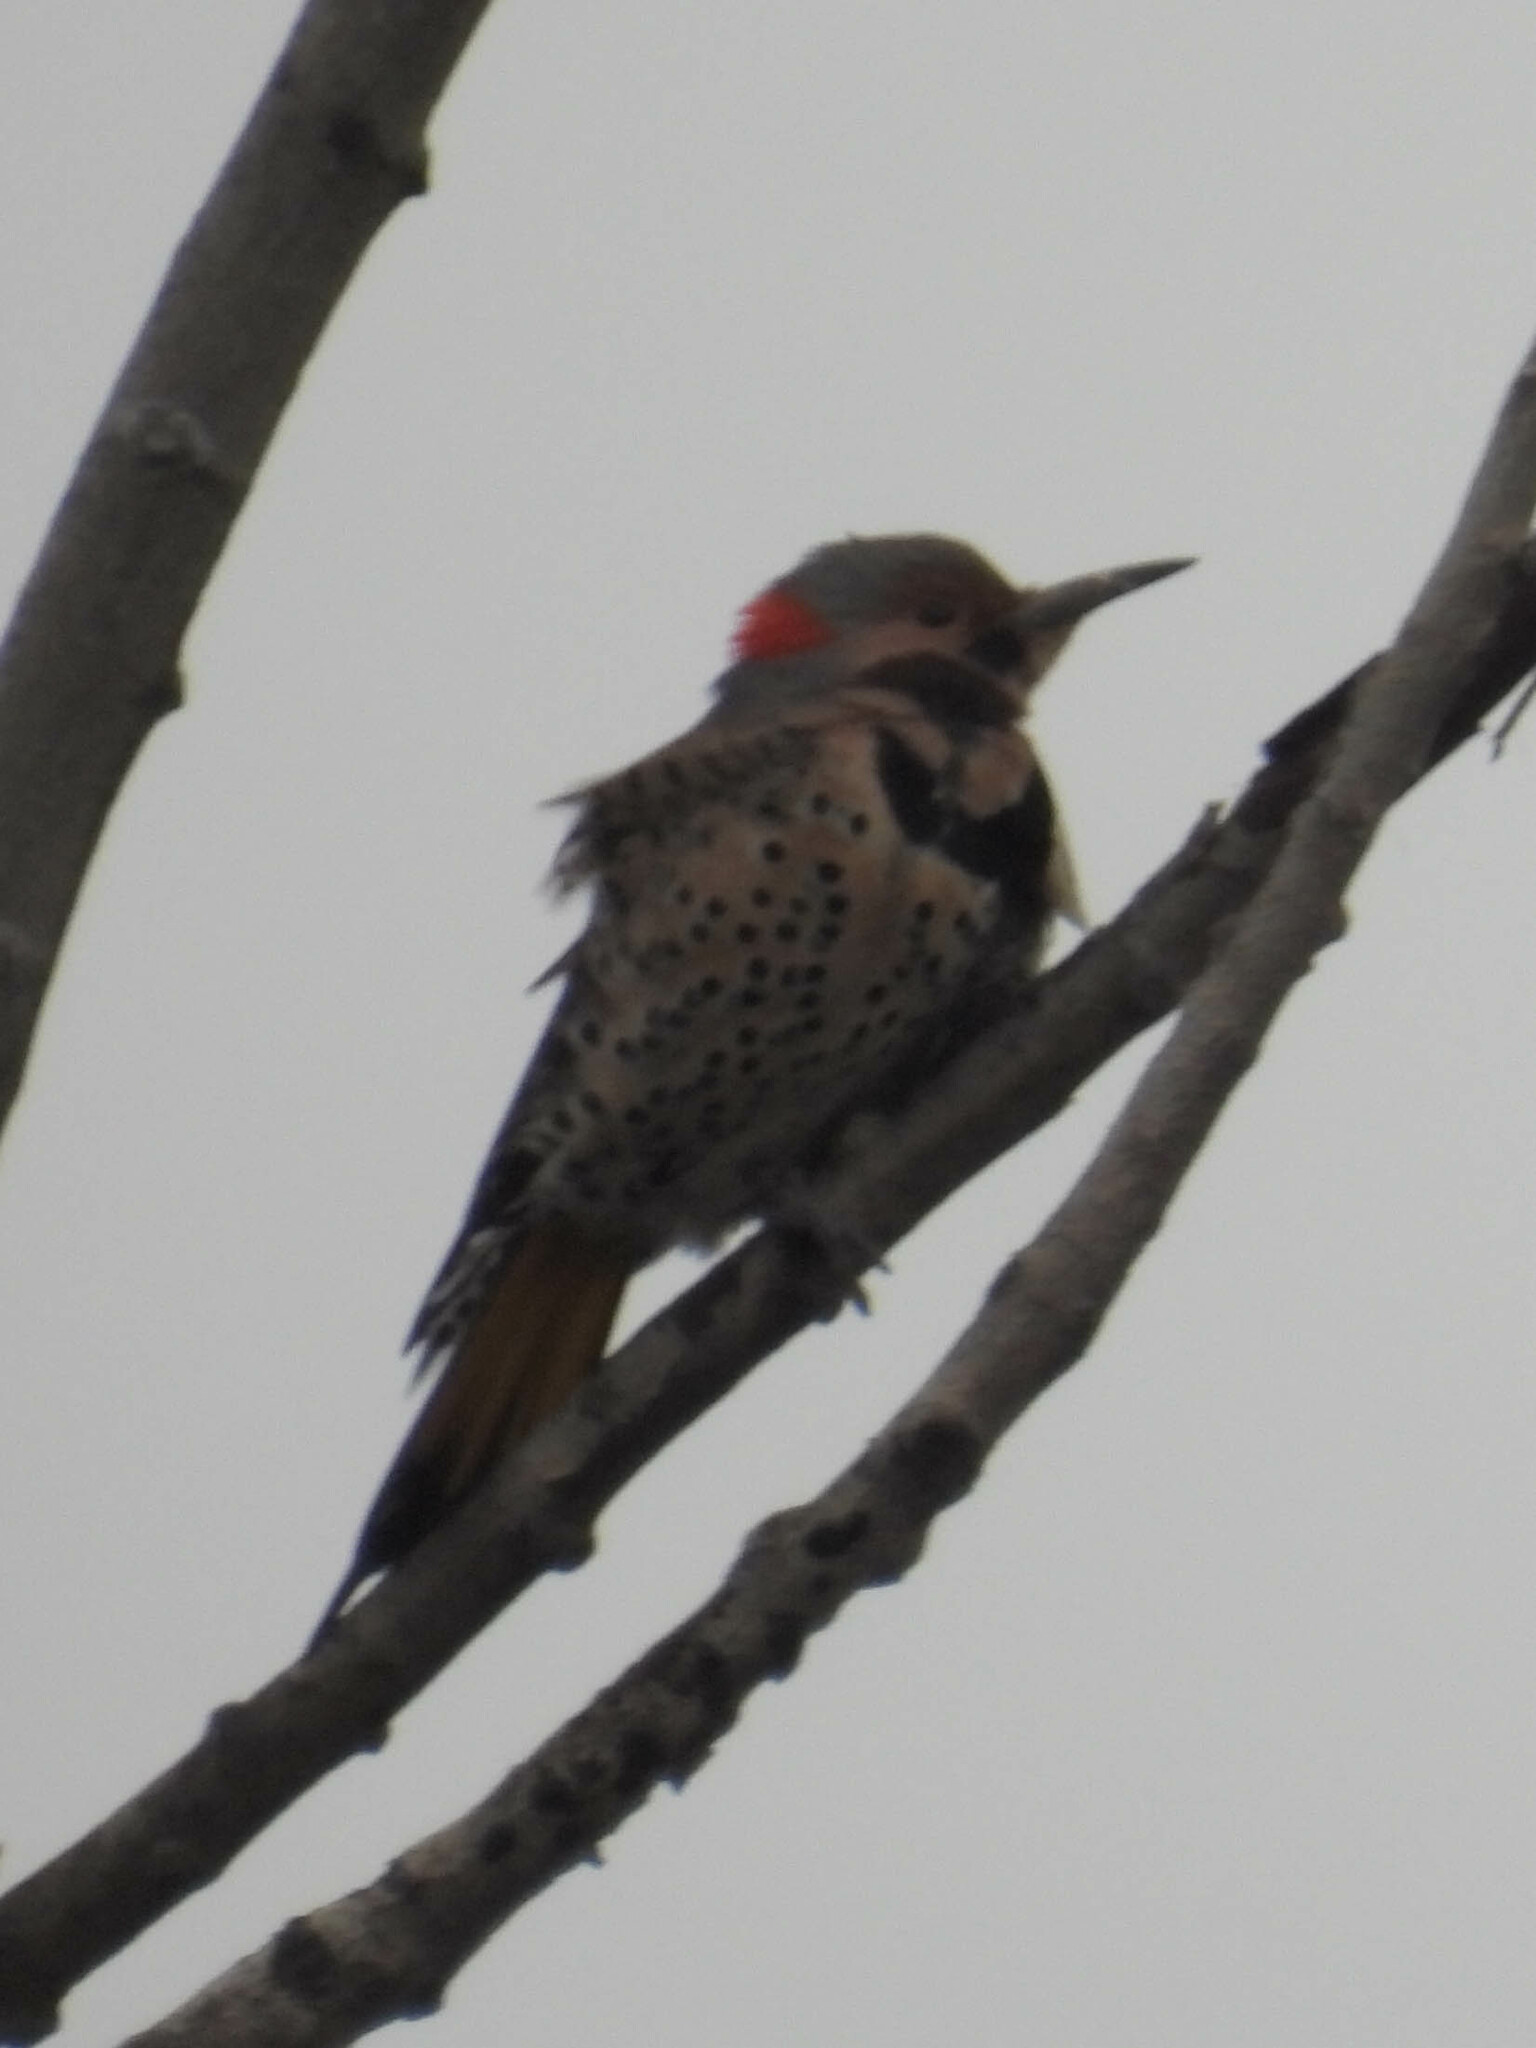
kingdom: Animalia
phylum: Chordata
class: Aves
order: Piciformes
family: Picidae
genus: Colaptes
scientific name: Colaptes auratus
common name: Northern flicker
